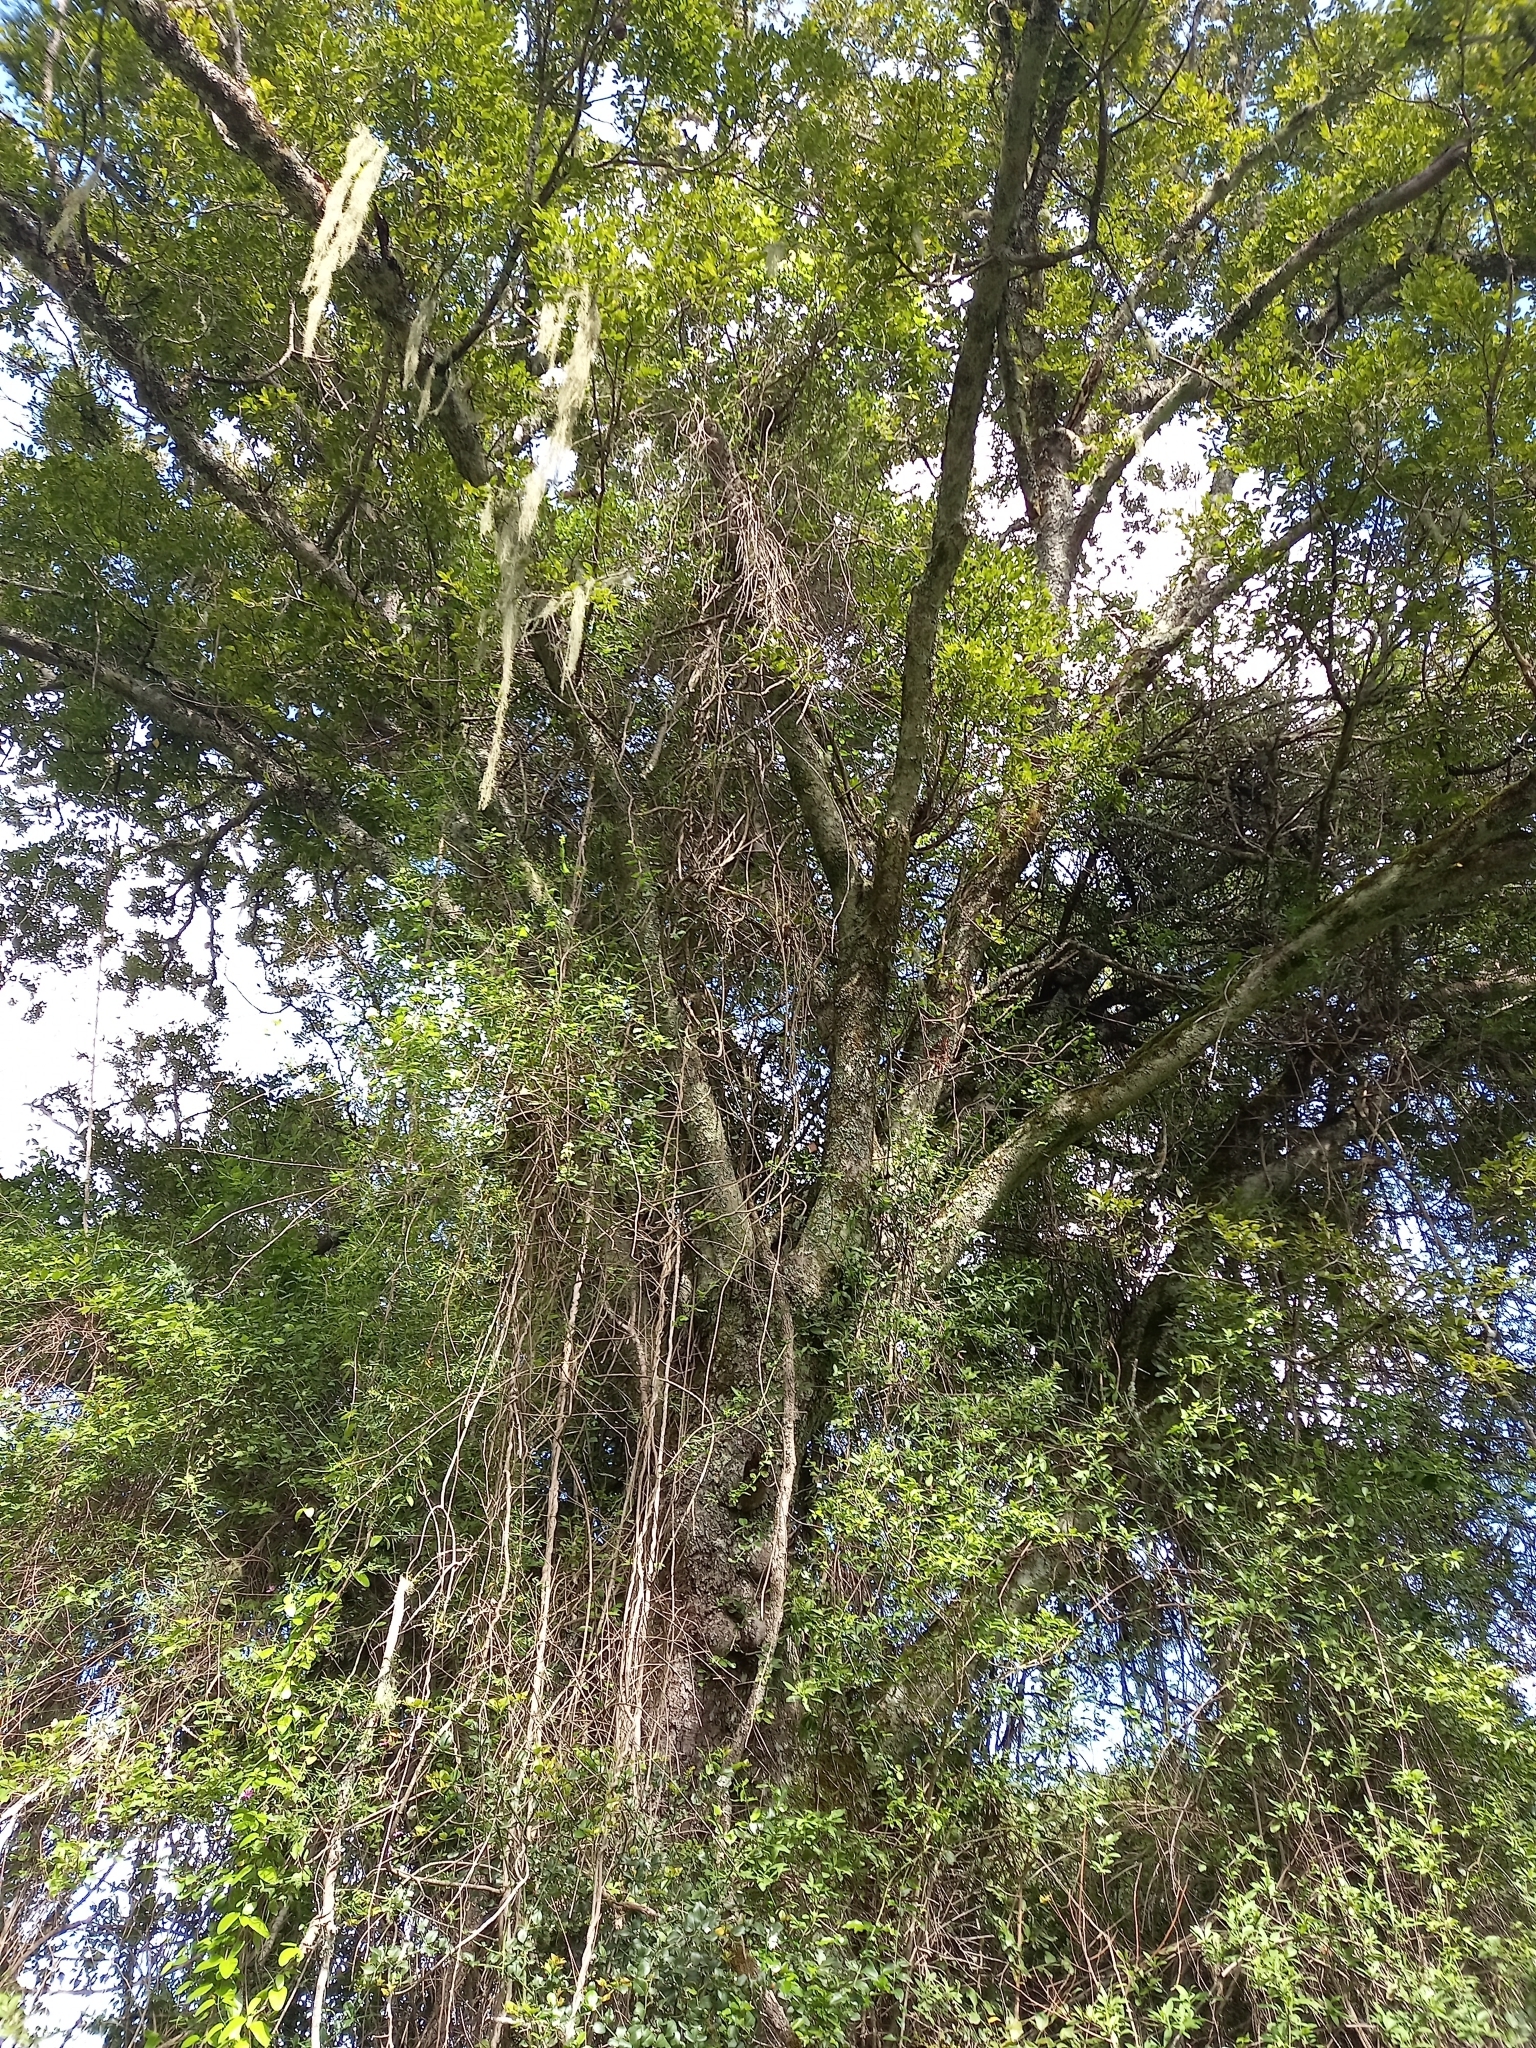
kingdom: Plantae
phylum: Tracheophyta
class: Magnoliopsida
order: Fabales
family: Fabaceae
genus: Schotia
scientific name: Schotia latifolia
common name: Bush boer-bean
